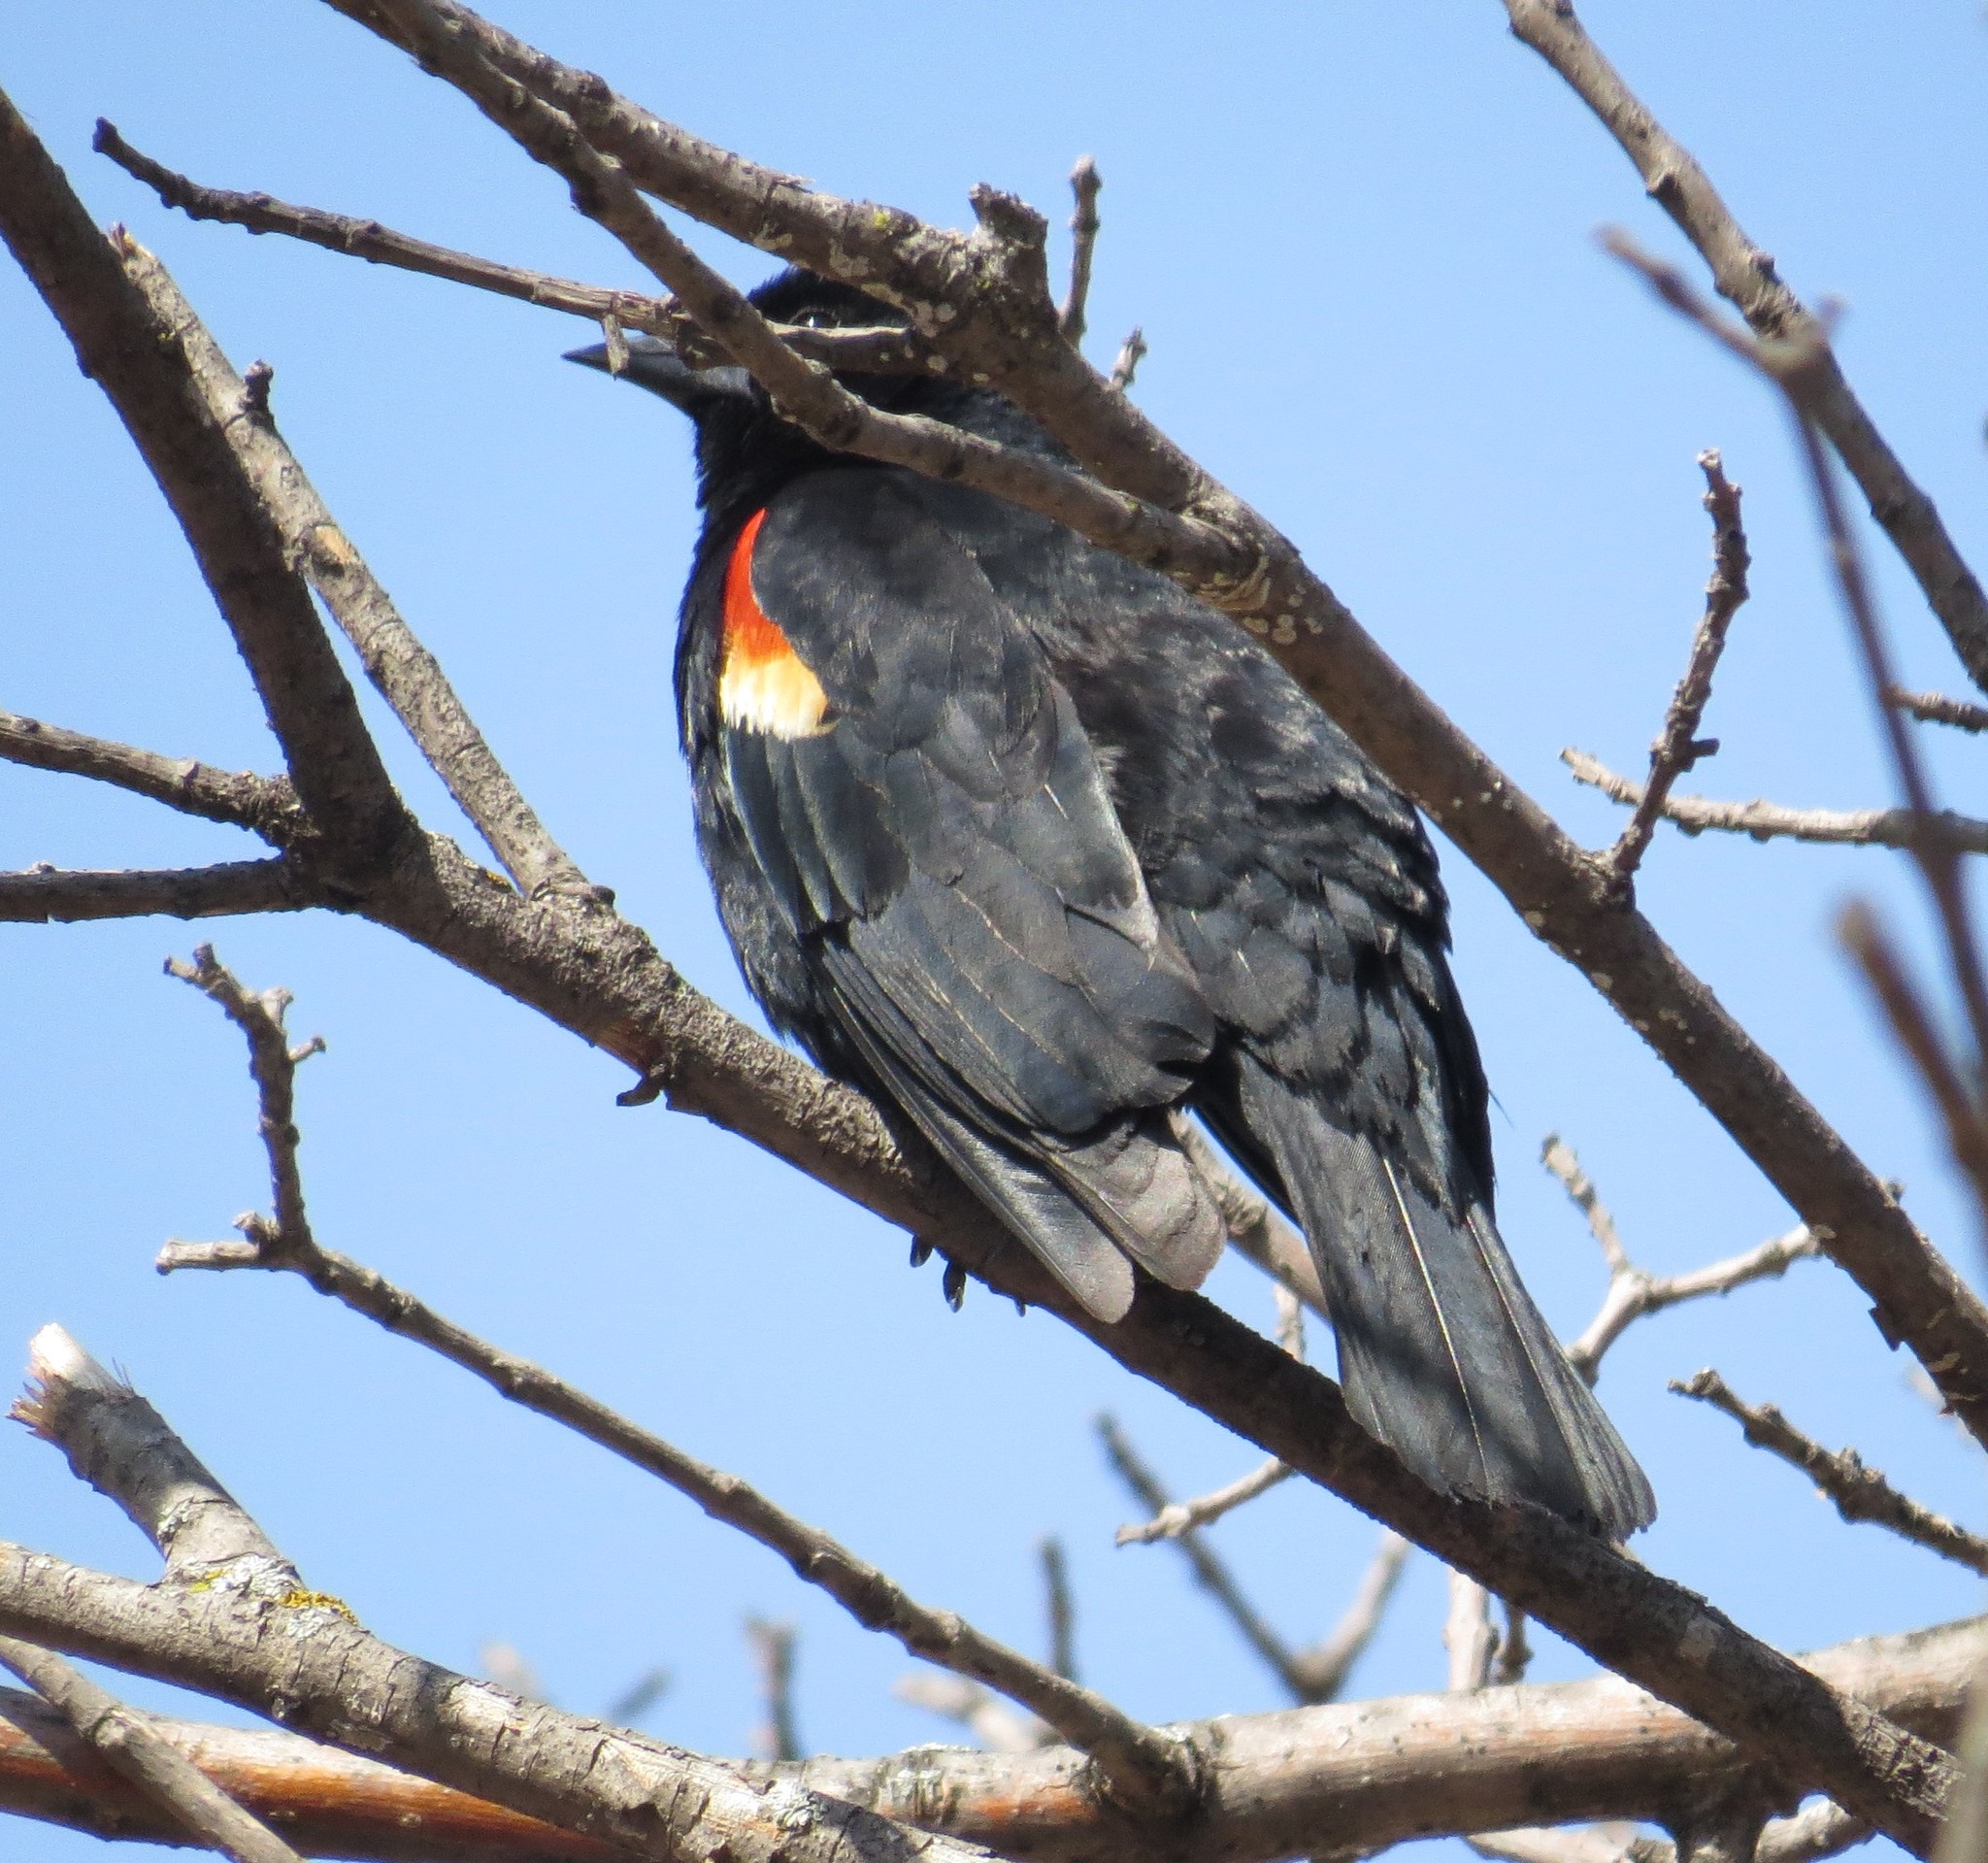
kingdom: Animalia
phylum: Chordata
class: Aves
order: Passeriformes
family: Icteridae
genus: Agelaius
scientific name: Agelaius phoeniceus
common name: Red-winged blackbird
